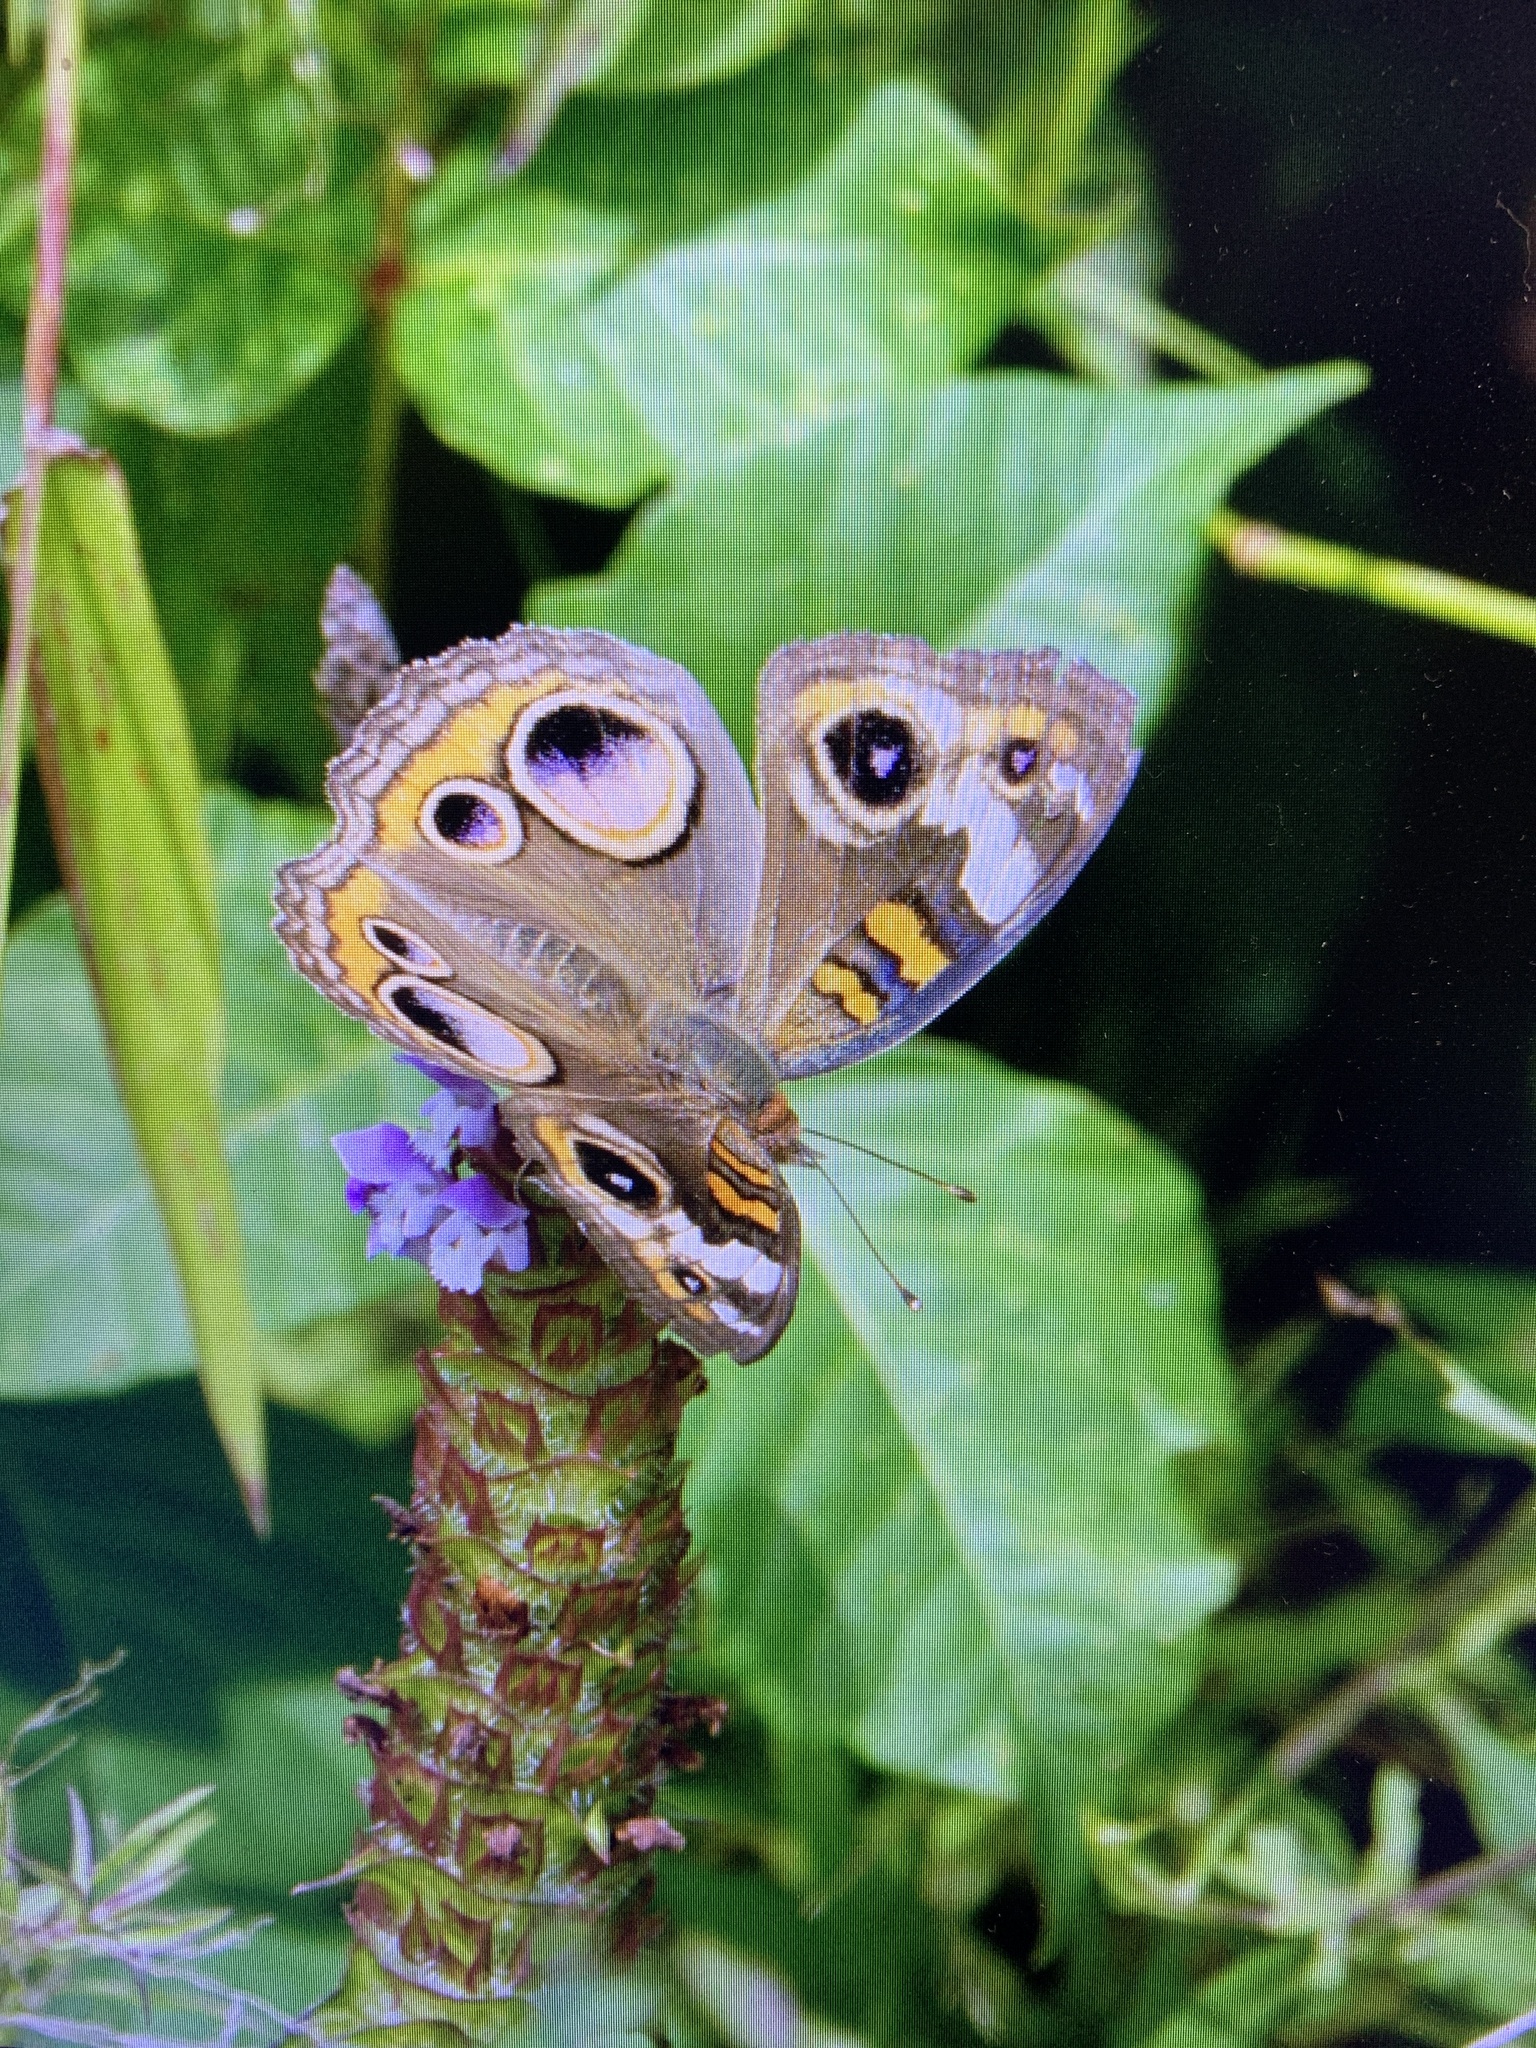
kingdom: Animalia
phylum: Arthropoda
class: Insecta
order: Lepidoptera
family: Nymphalidae
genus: Junonia
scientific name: Junonia coenia
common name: Common buckeye
